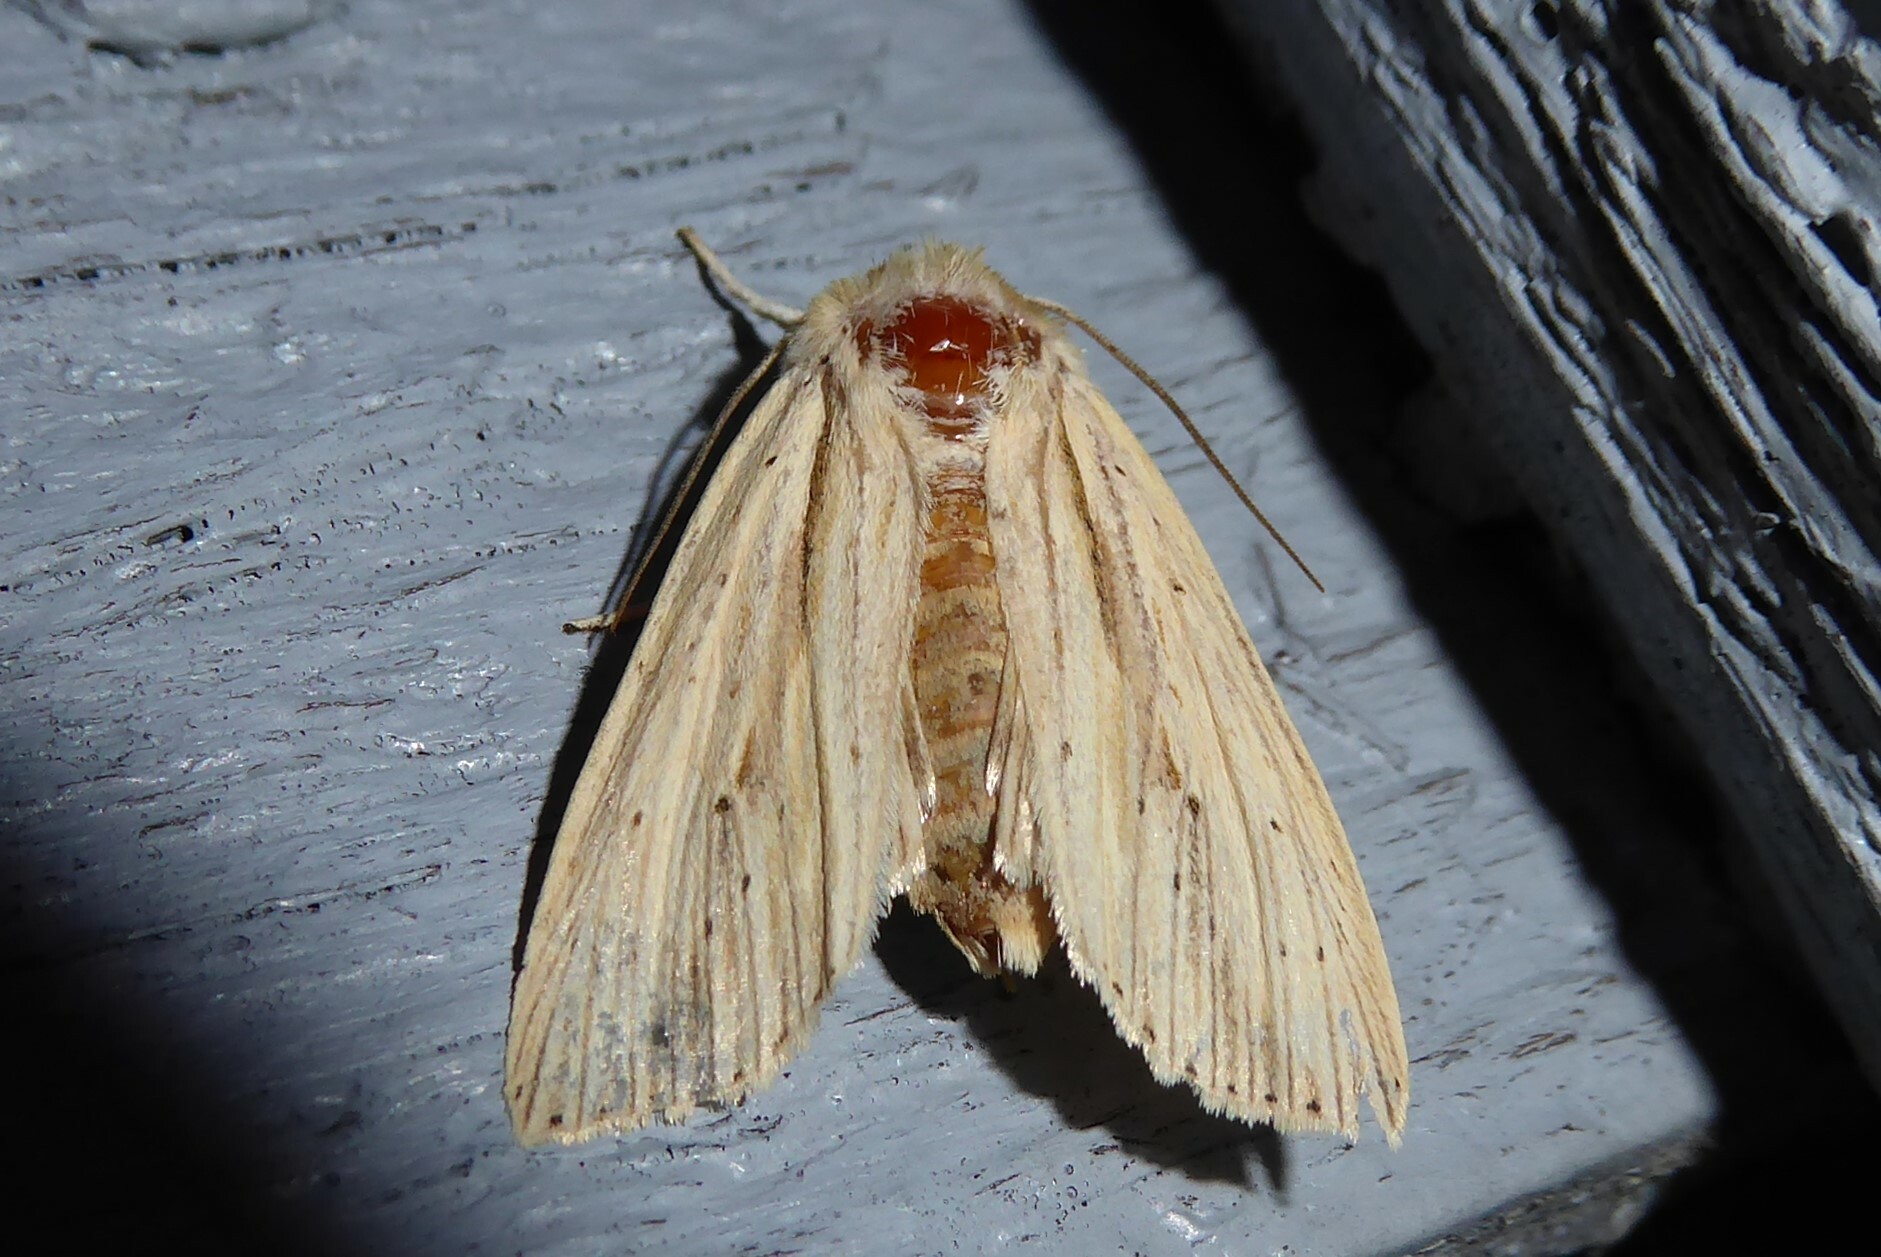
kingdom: Animalia
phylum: Arthropoda
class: Insecta
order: Lepidoptera
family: Noctuidae
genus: Ichneutica
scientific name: Ichneutica semivittata
